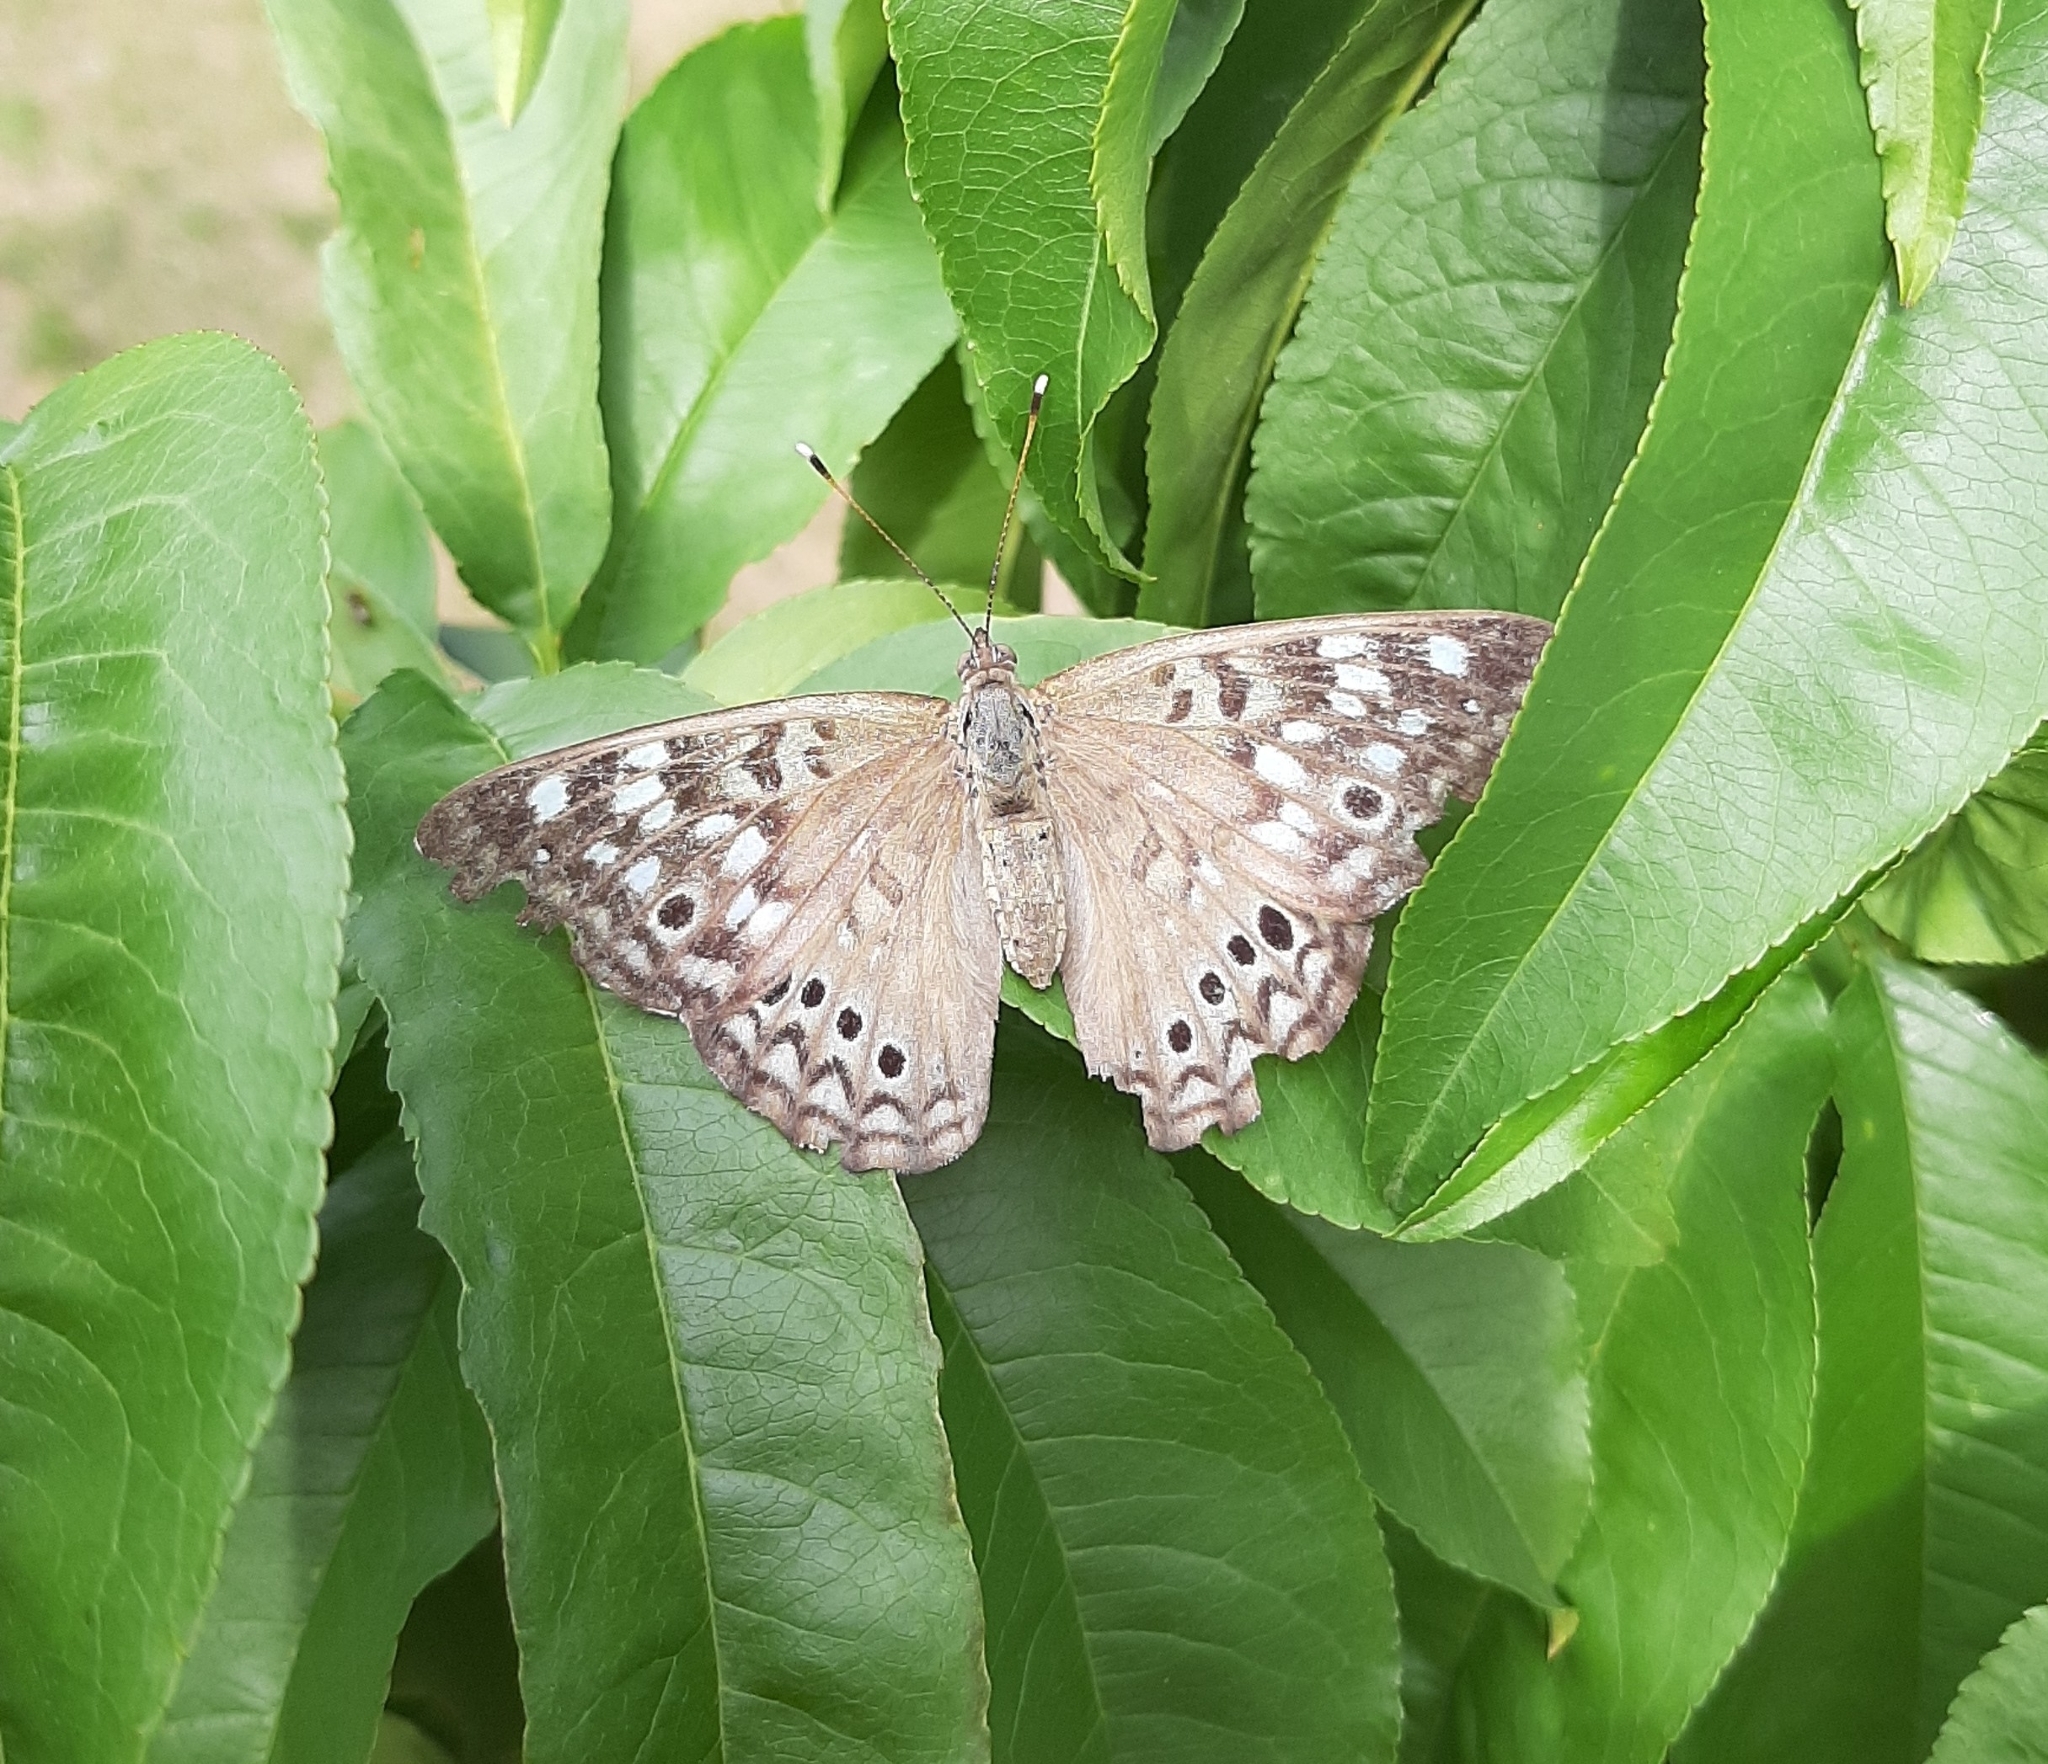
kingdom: Animalia
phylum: Arthropoda
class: Insecta
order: Lepidoptera
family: Nymphalidae
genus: Asterocampa
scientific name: Asterocampa celtis
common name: Hackberry emperor
